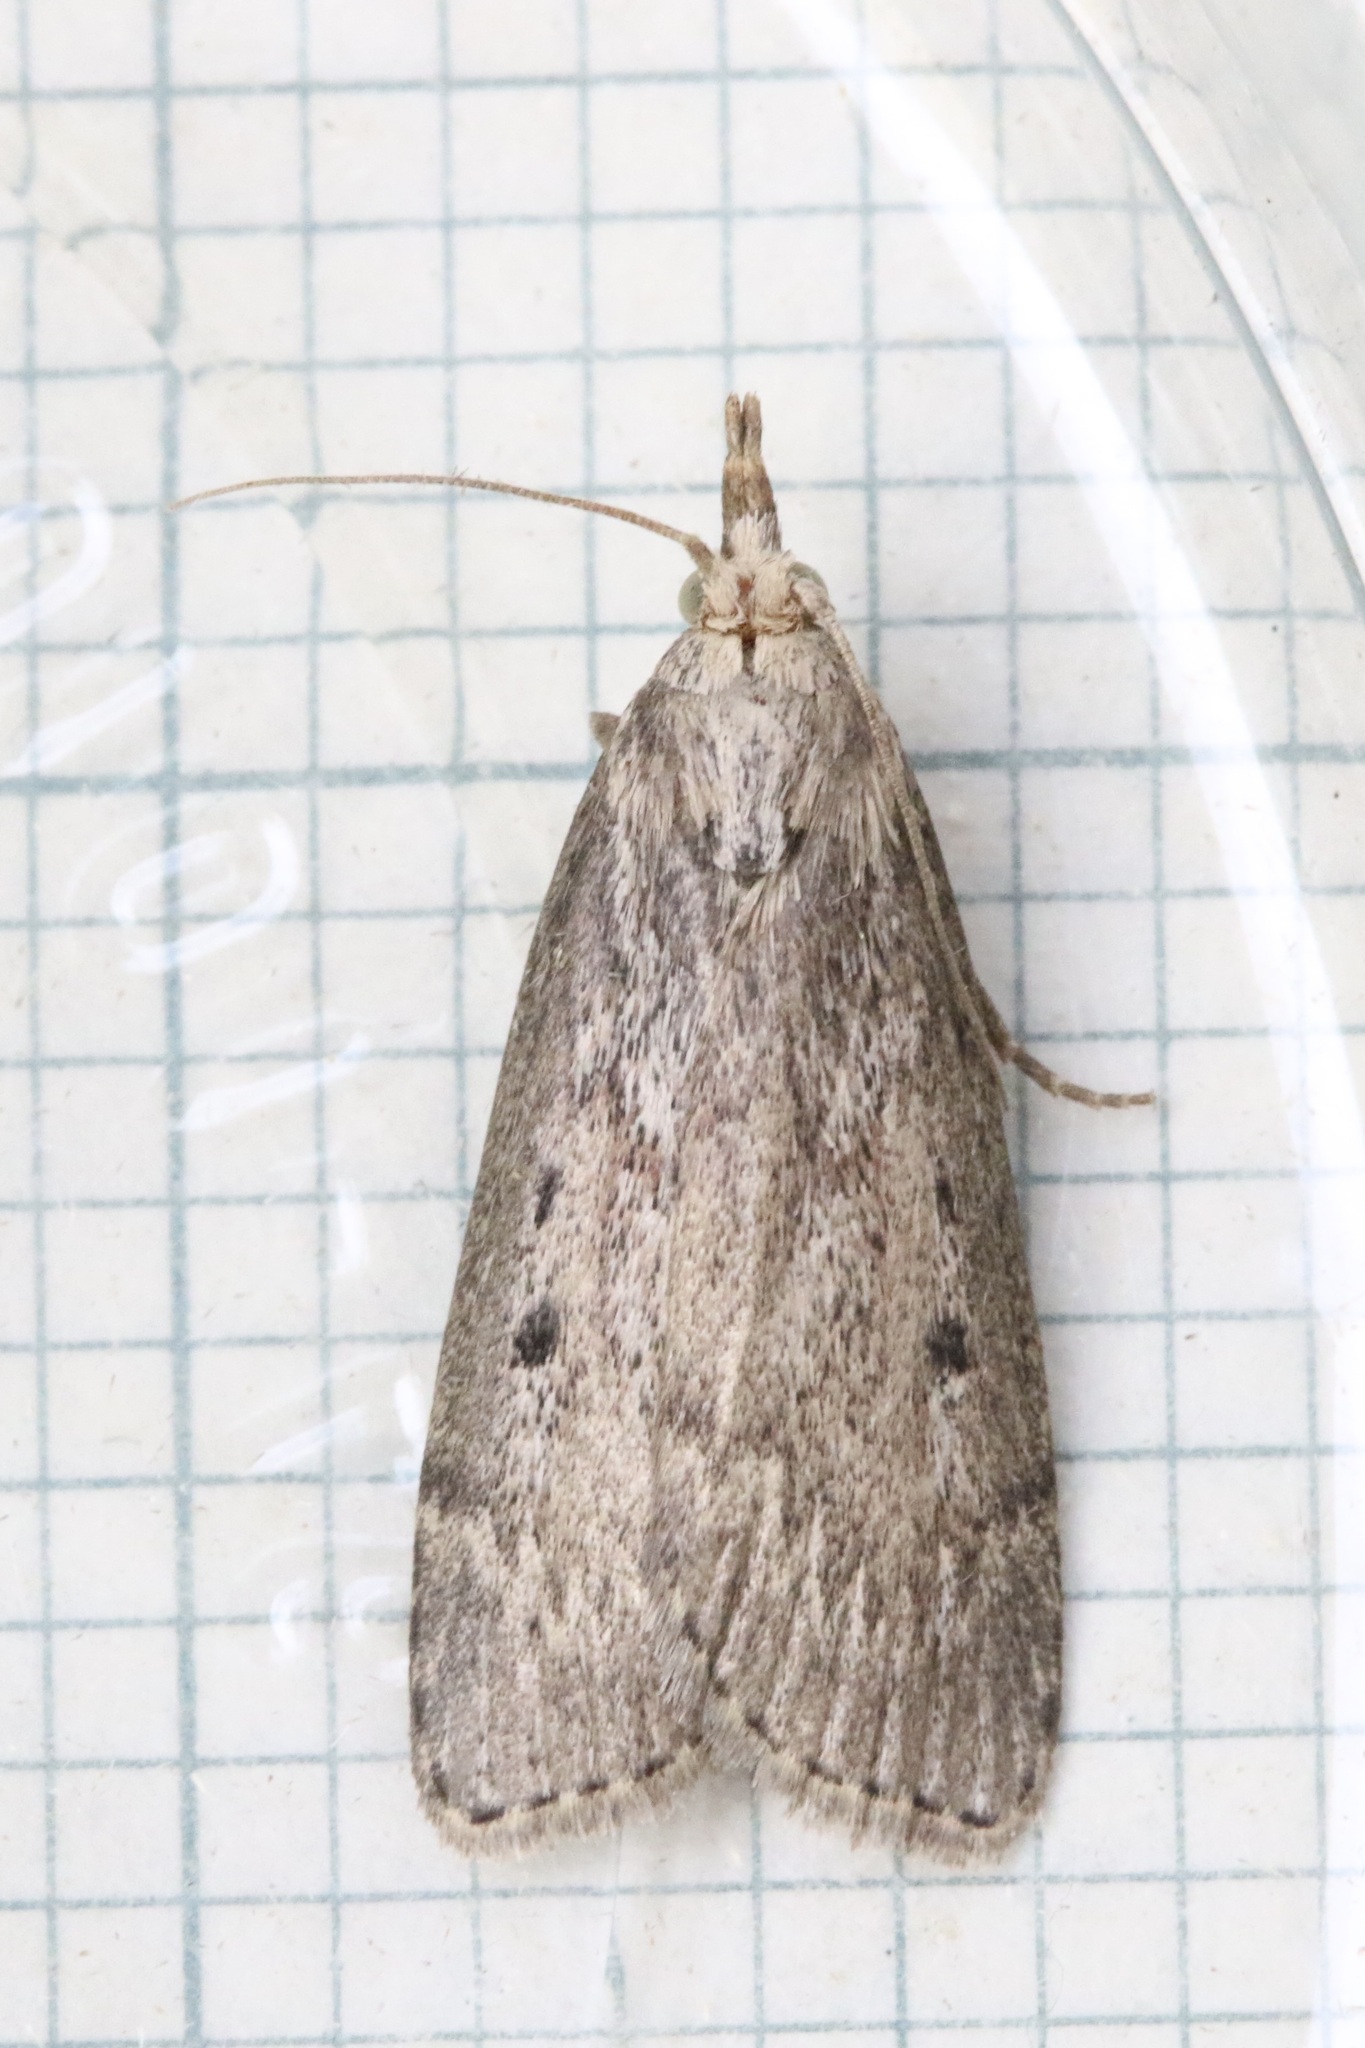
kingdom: Animalia
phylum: Arthropoda
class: Insecta
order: Lepidoptera
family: Pyralidae
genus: Aphomia
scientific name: Aphomia sociella
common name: Bee moth
